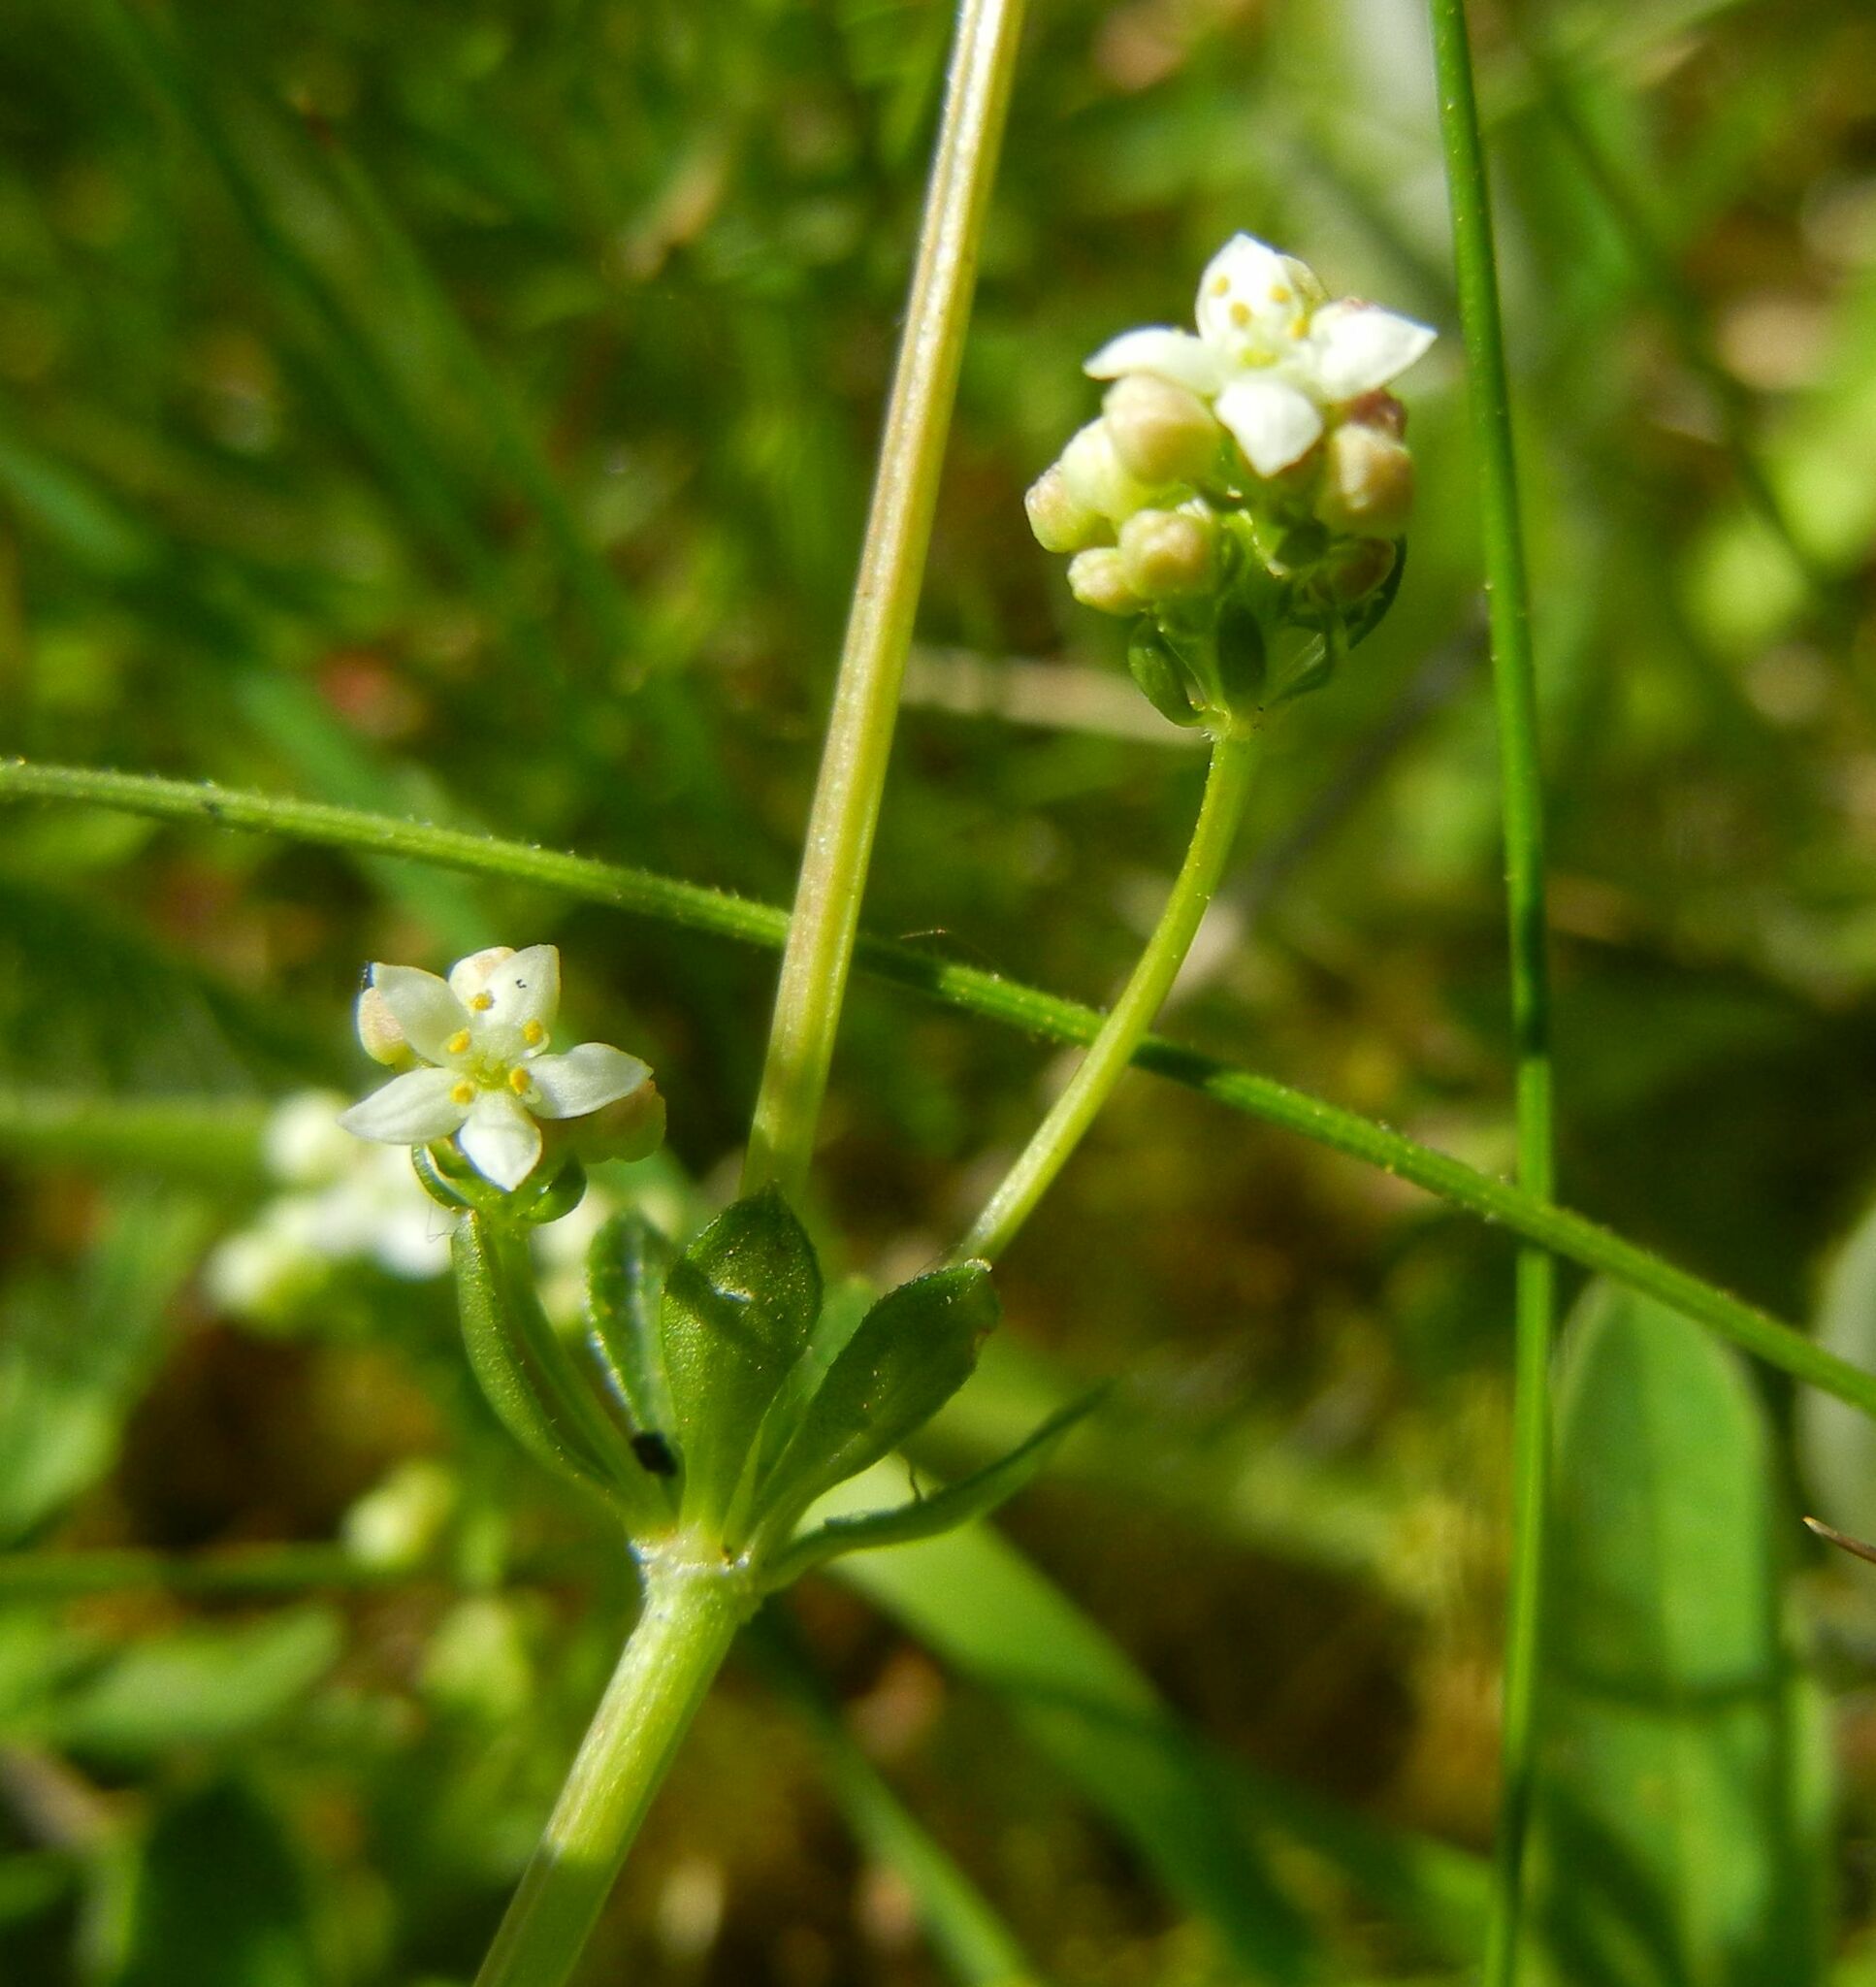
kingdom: Plantae
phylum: Tracheophyta
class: Magnoliopsida
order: Gentianales
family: Rubiaceae
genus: Galium
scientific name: Galium saxatile
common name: Heath bedstraw
